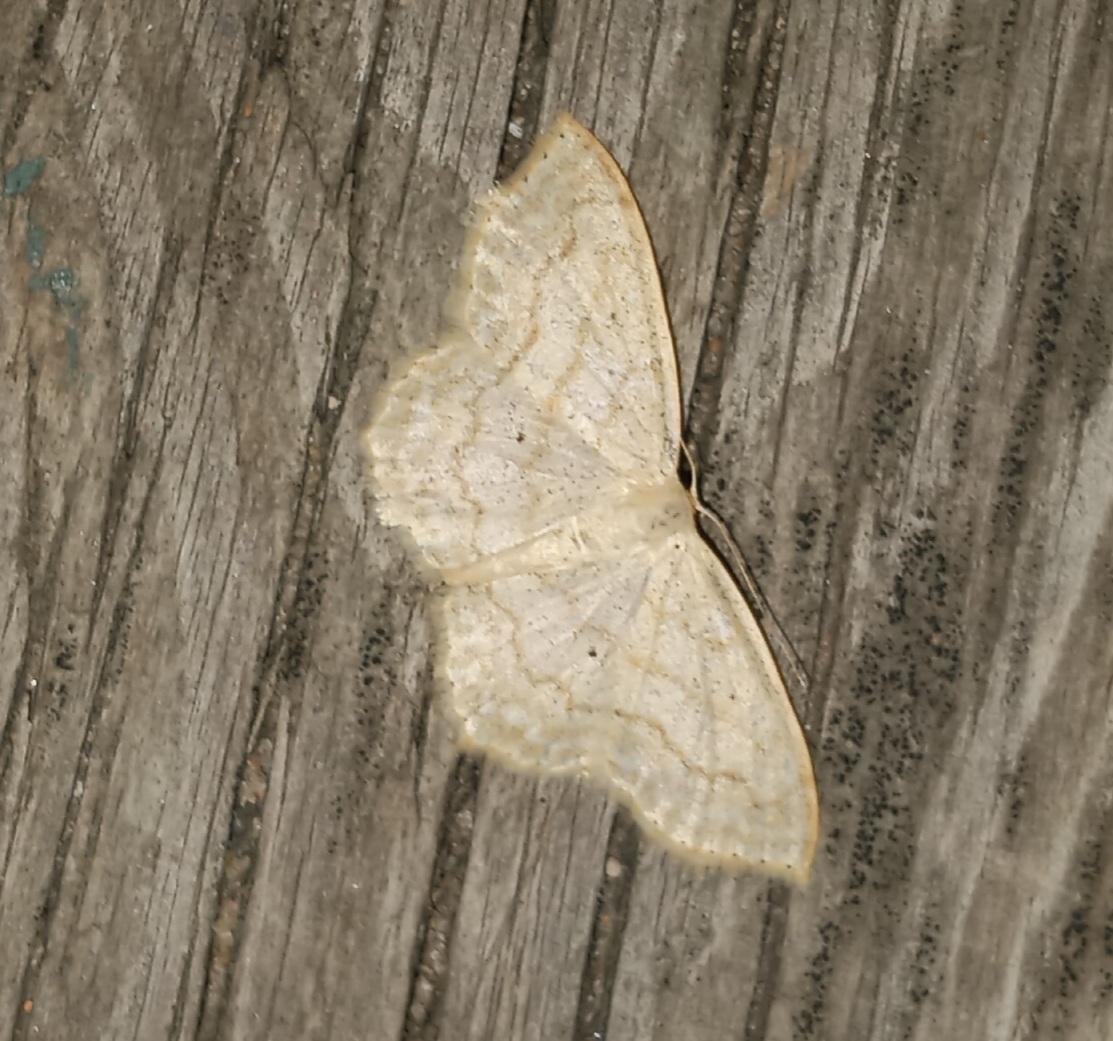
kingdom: Animalia
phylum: Arthropoda
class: Insecta
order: Lepidoptera
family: Geometridae
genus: Scopula
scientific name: Scopula limboundata
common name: Large lace border
